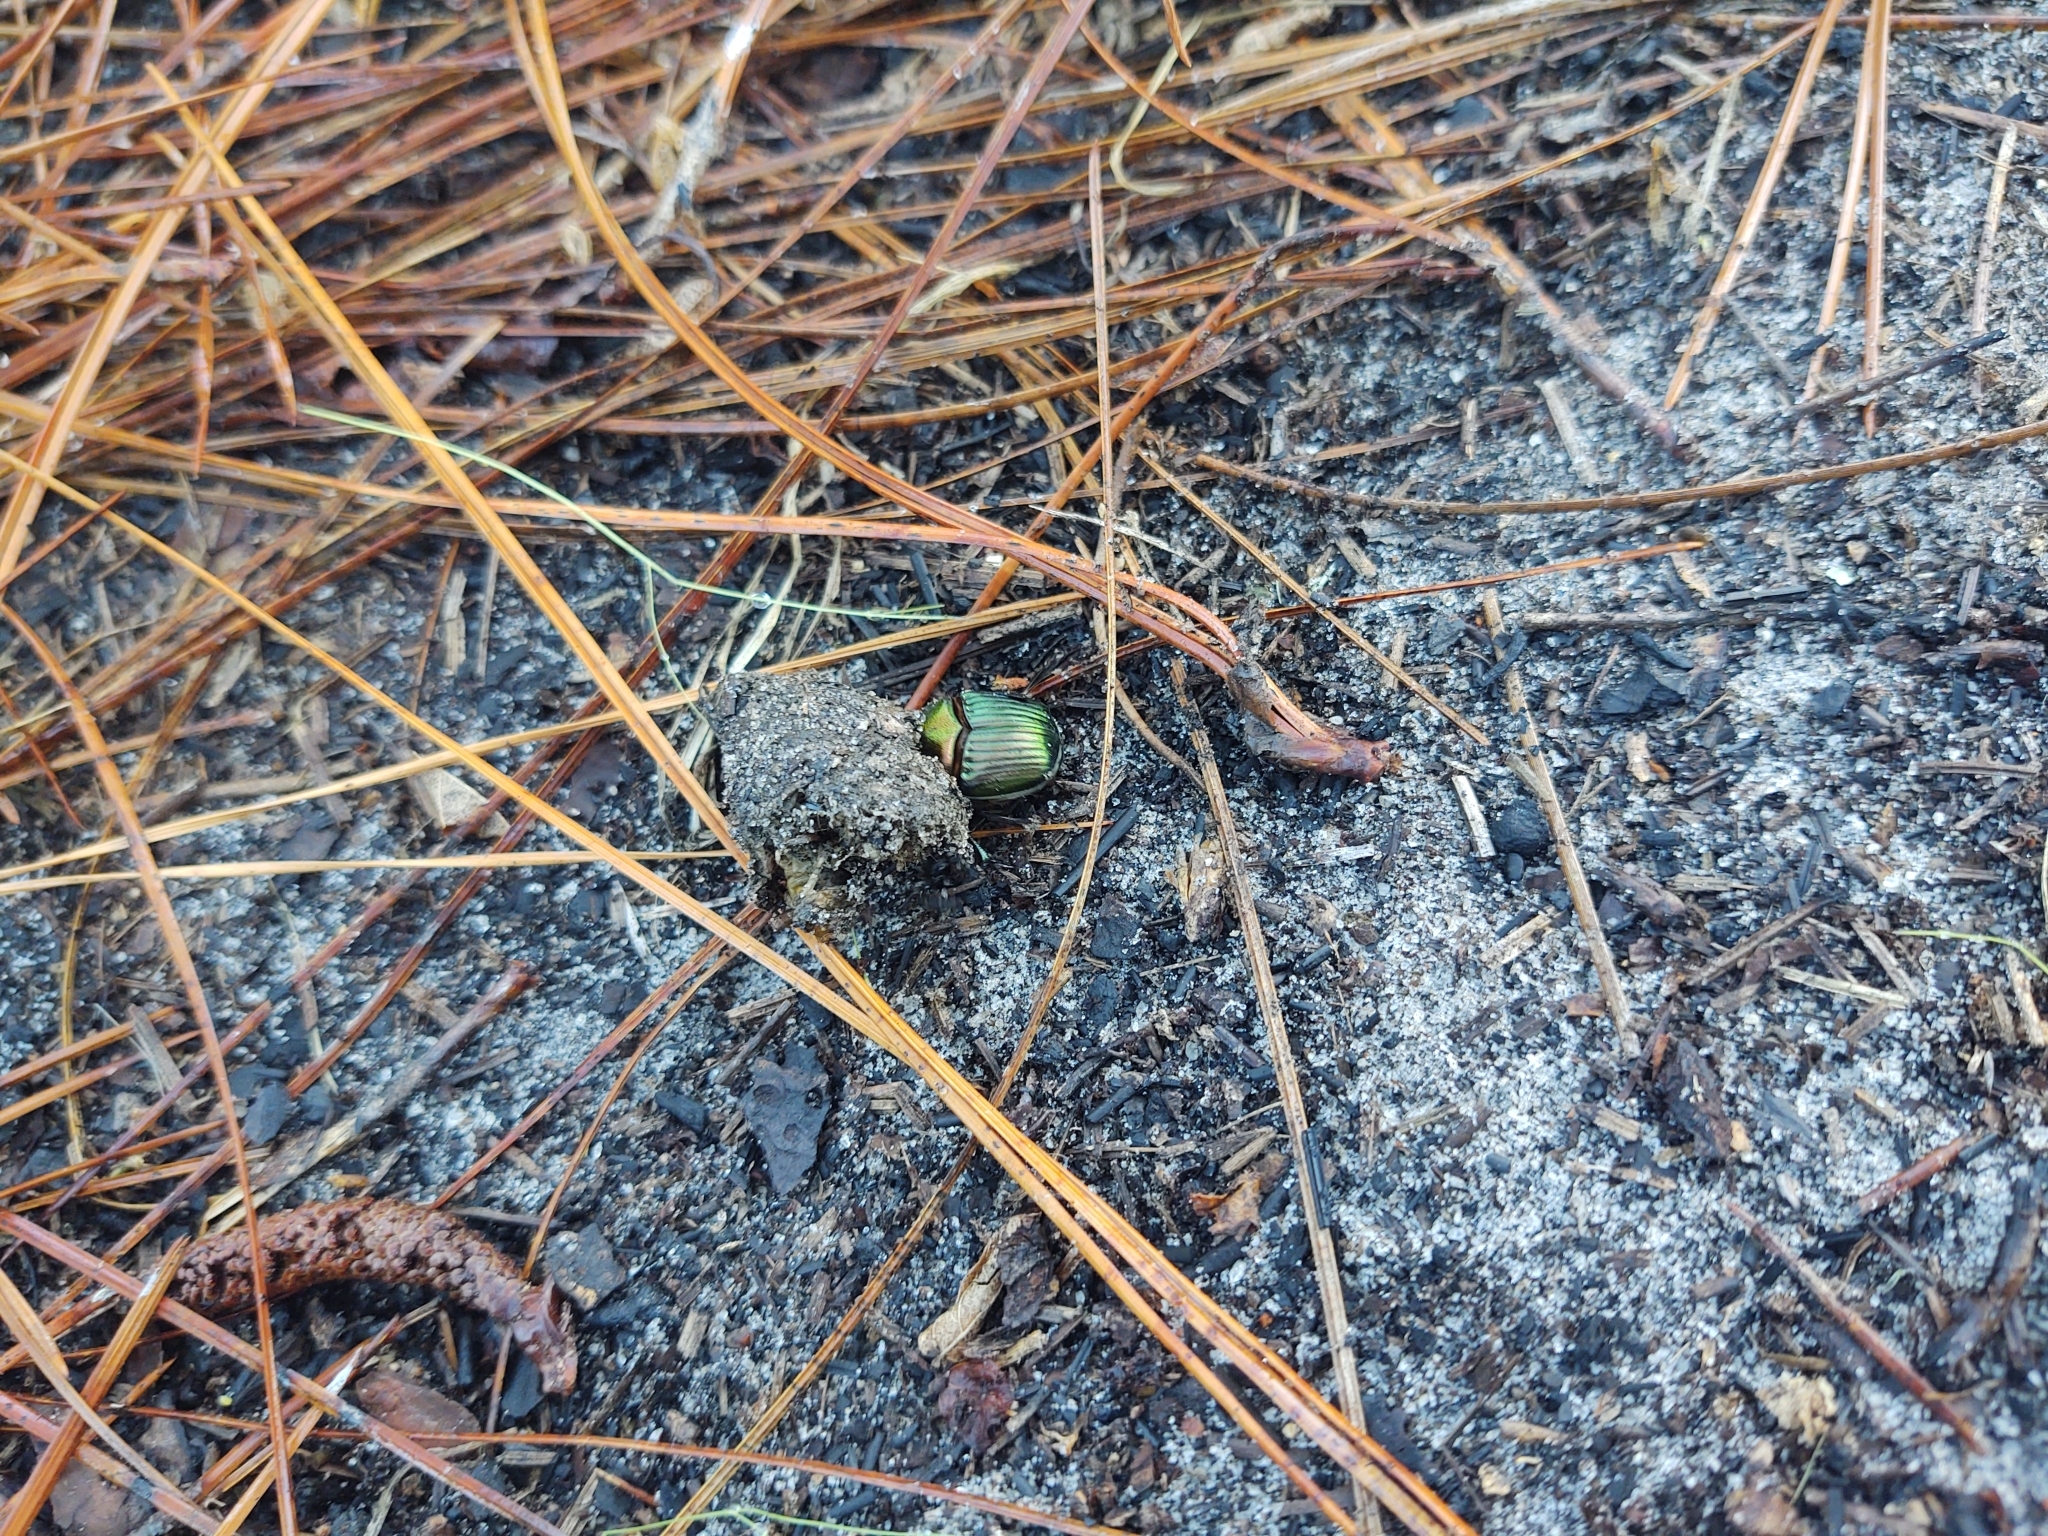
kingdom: Animalia
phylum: Arthropoda
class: Insecta
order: Coleoptera
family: Scarabaeidae
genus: Phanaeus
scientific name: Phanaeus igneus
